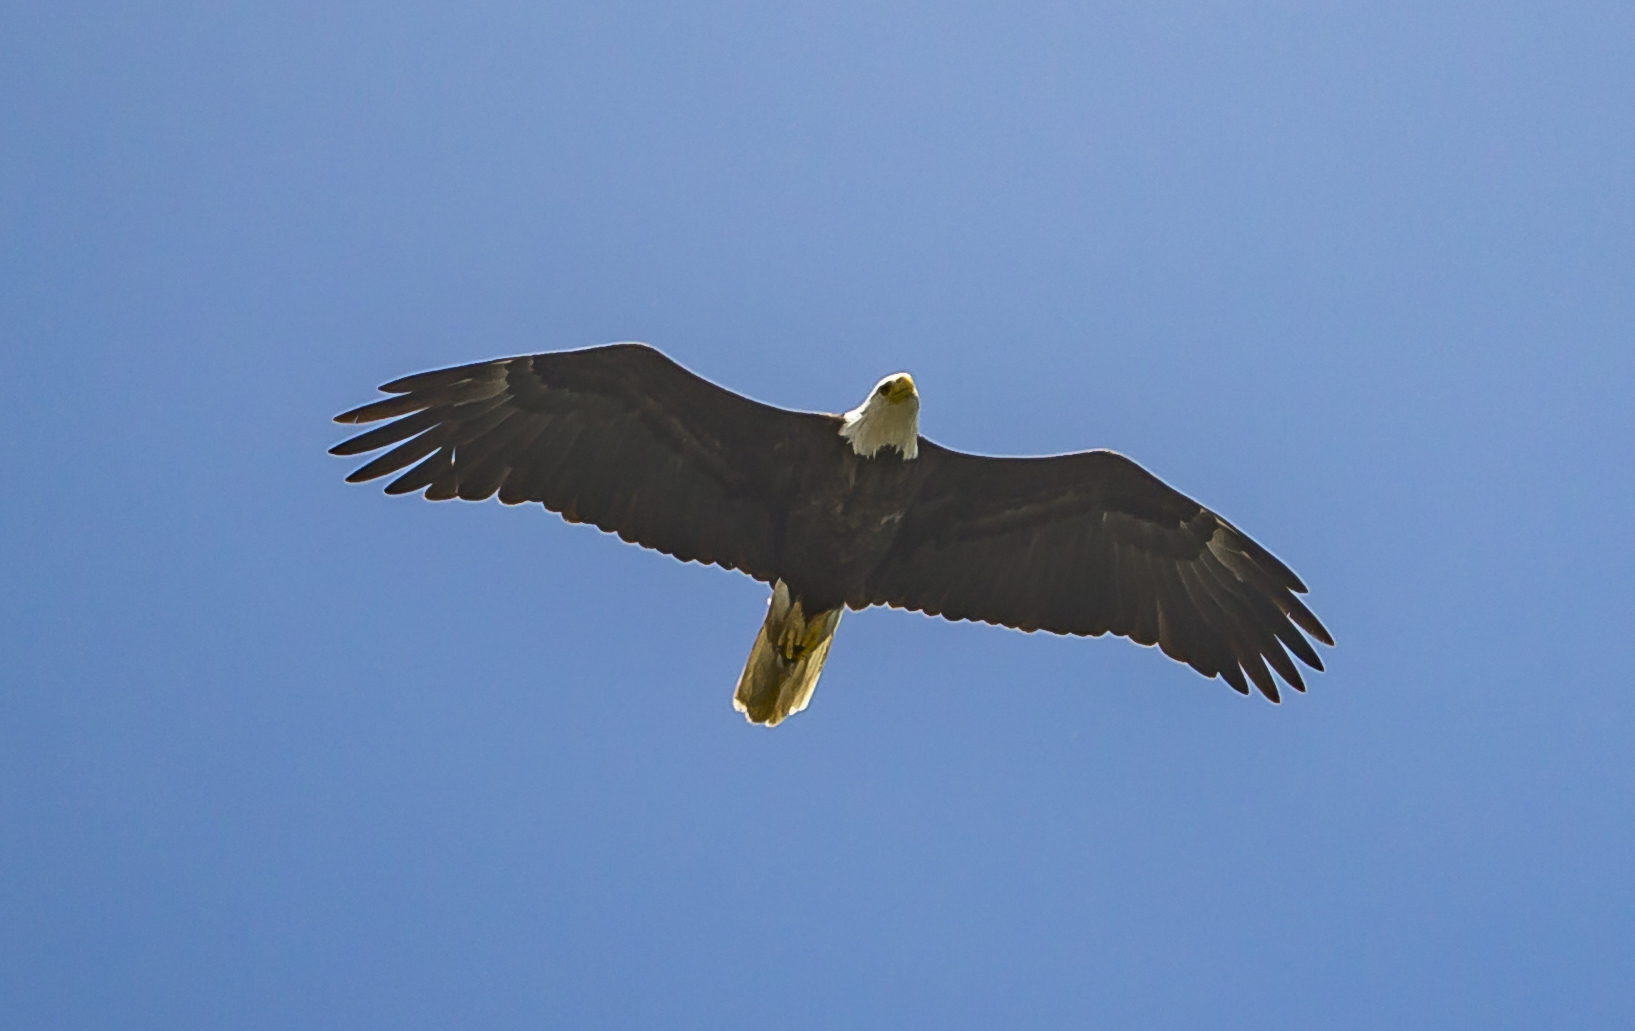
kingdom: Animalia
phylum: Chordata
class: Aves
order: Accipitriformes
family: Accipitridae
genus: Haliaeetus
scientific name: Haliaeetus leucocephalus
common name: Bald eagle
